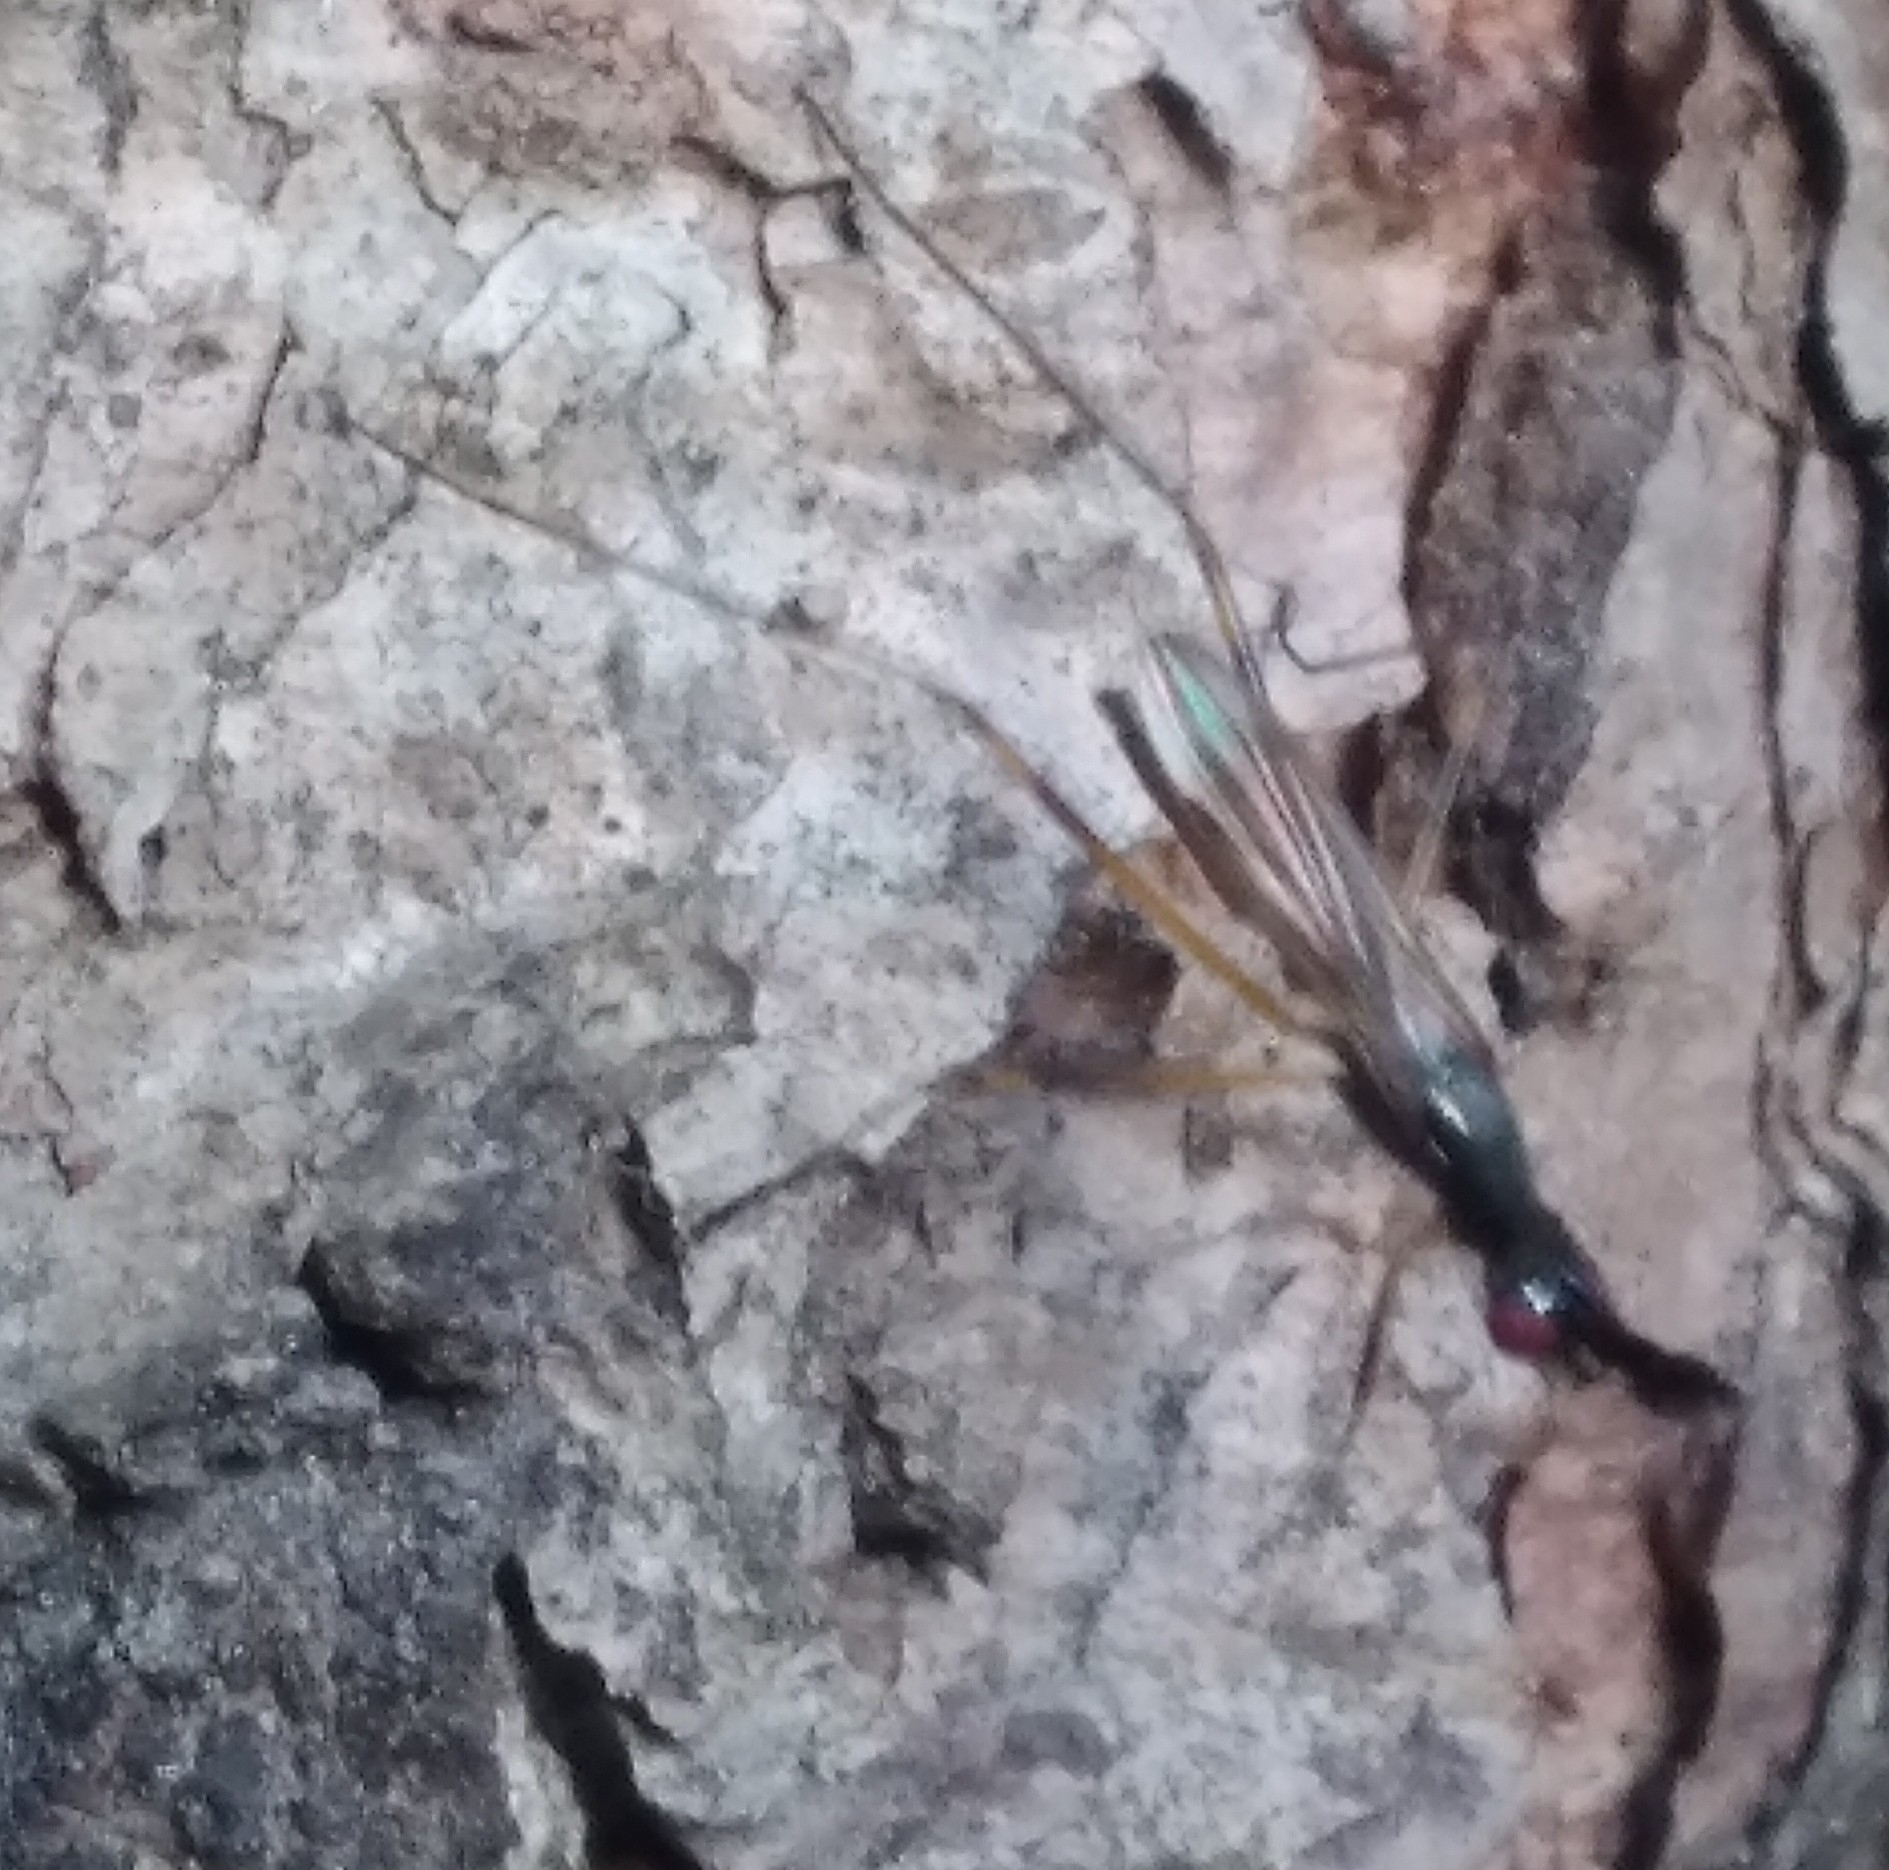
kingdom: Animalia
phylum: Arthropoda
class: Insecta
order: Diptera
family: Micropezidae
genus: Rainieria
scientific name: Rainieria antennaepes
